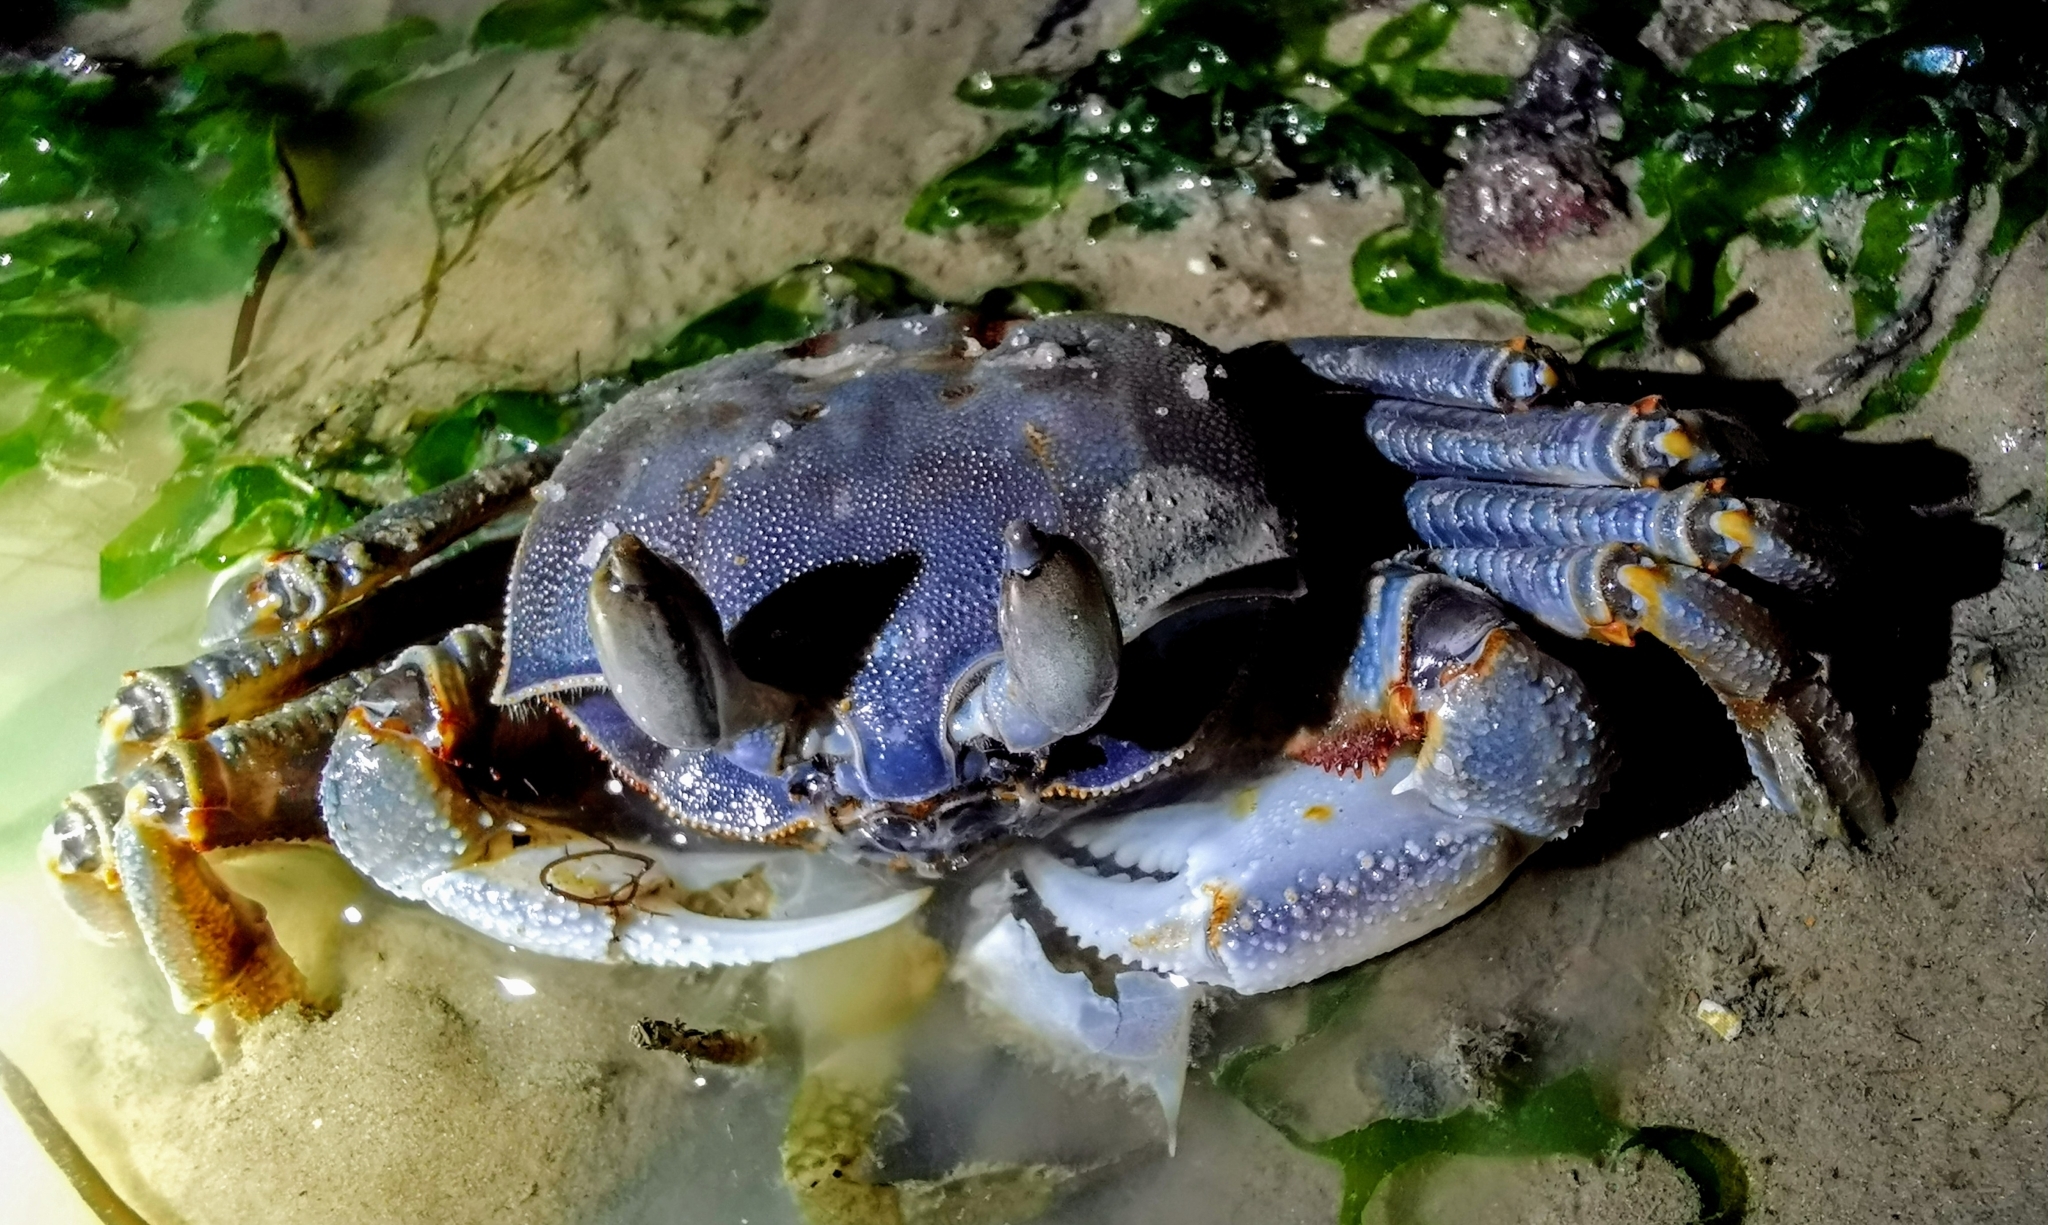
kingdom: Animalia
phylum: Arthropoda
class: Malacostraca
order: Decapoda
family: Ocypodidae
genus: Ocypode
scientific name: Ocypode ceratophthalmus
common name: Indo-pacific ghost crab
